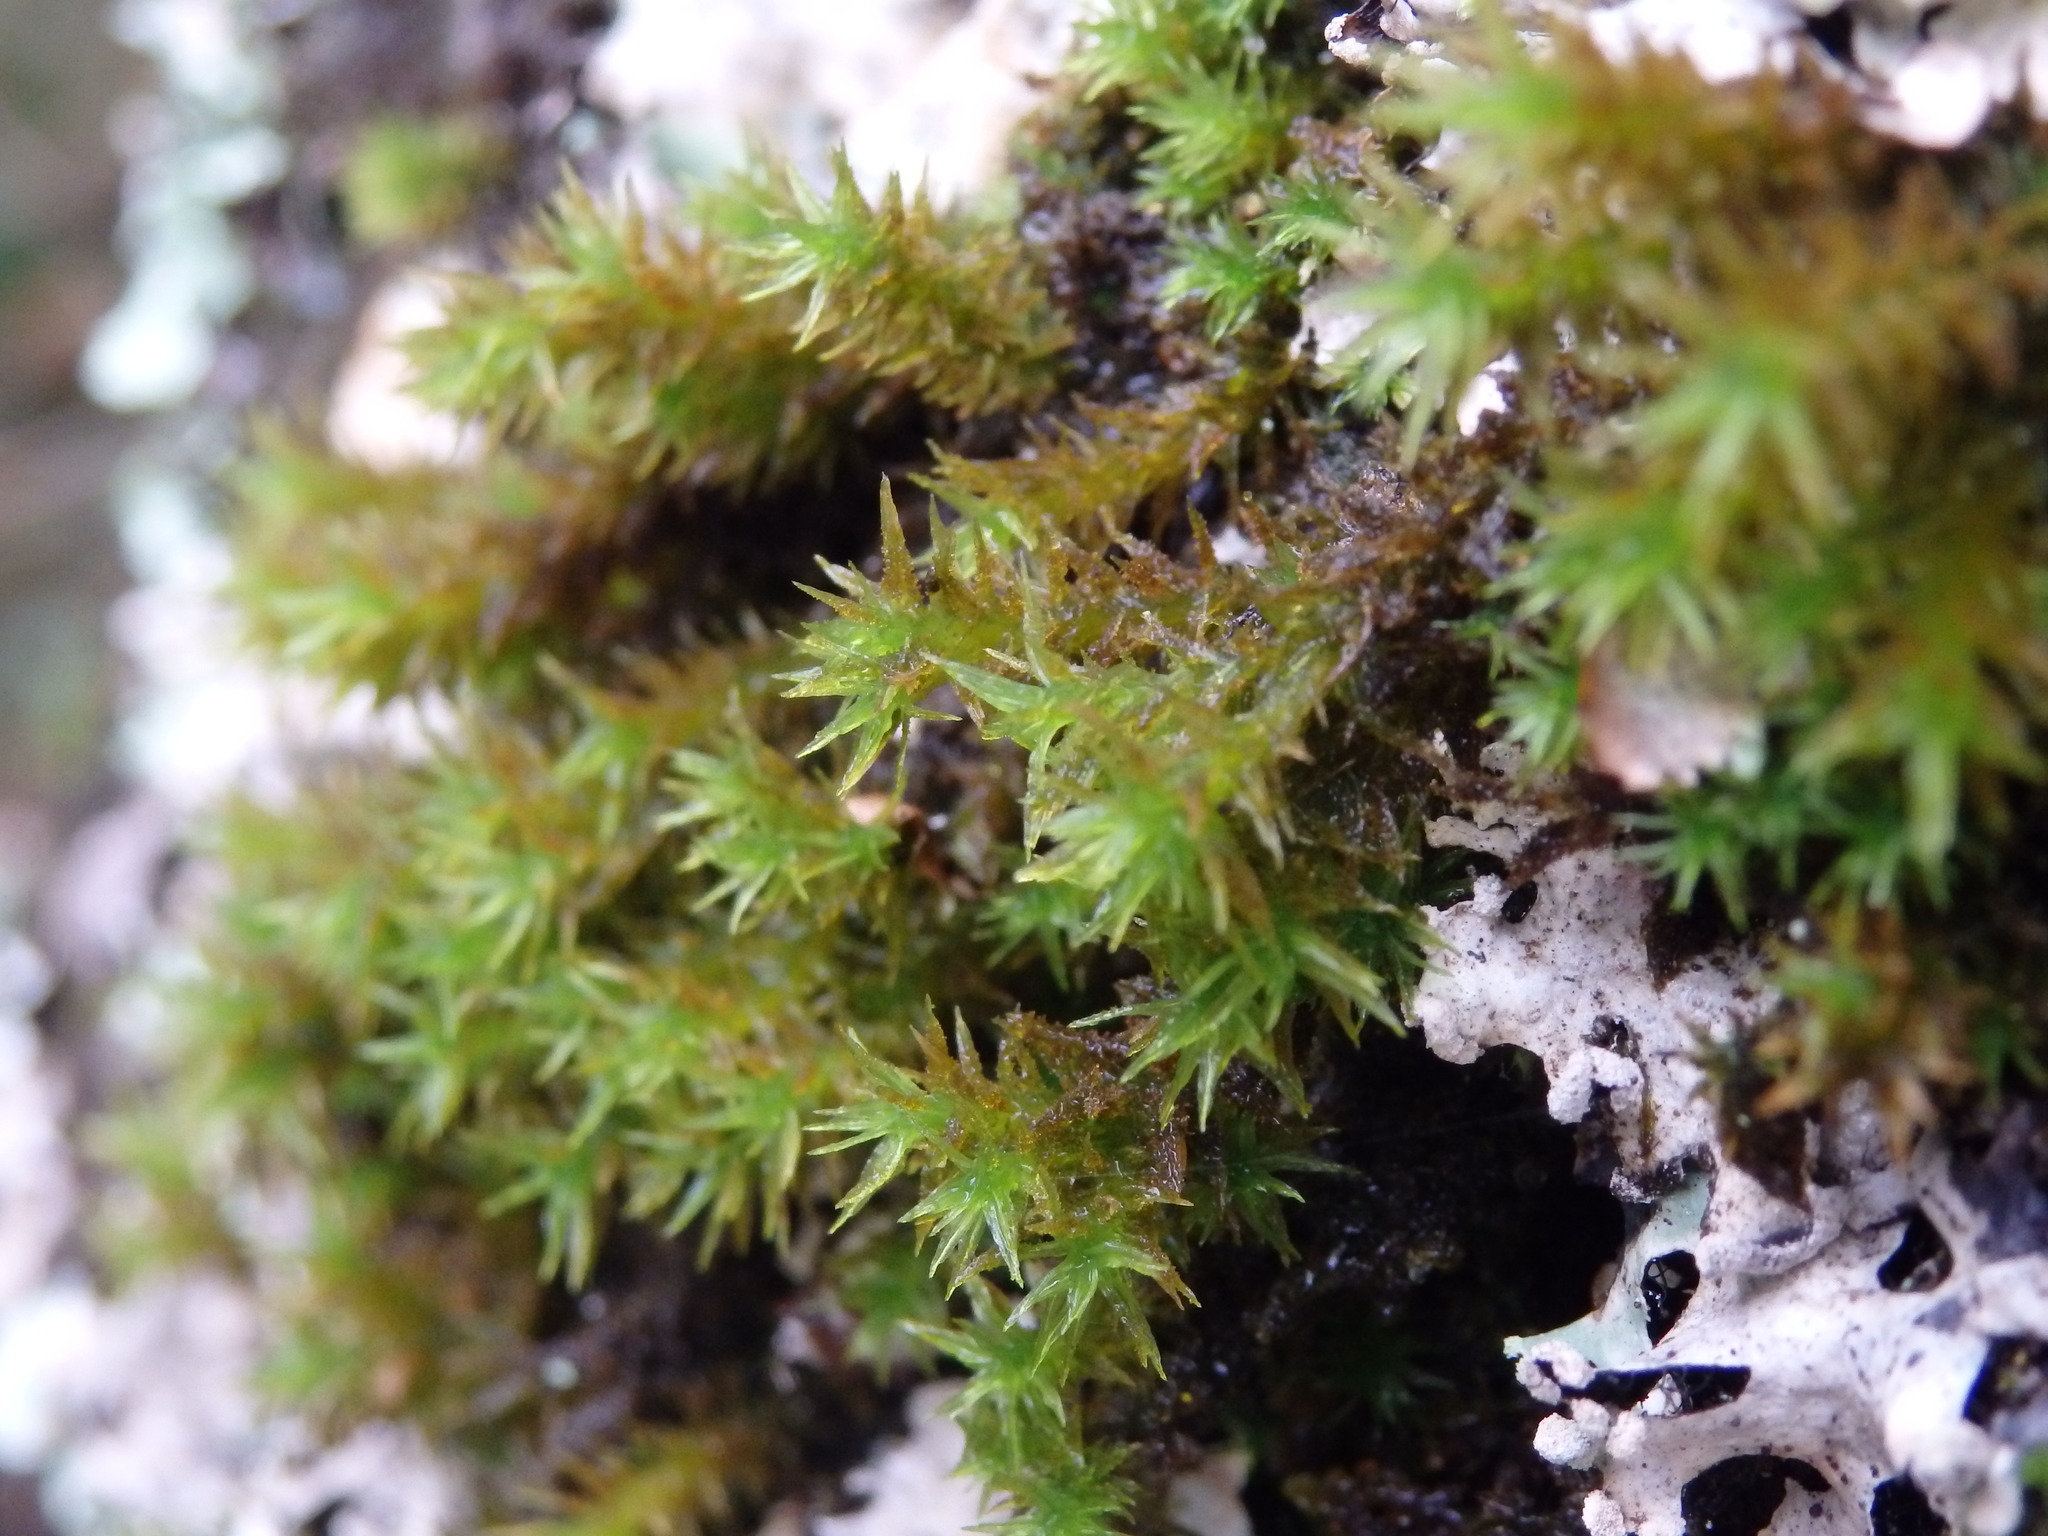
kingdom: Plantae
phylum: Bryophyta
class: Bryopsida
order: Orthotrichales
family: Orthotrichaceae
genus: Pulvigera
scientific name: Pulvigera lyellii
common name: Lyell's bristle-moss
